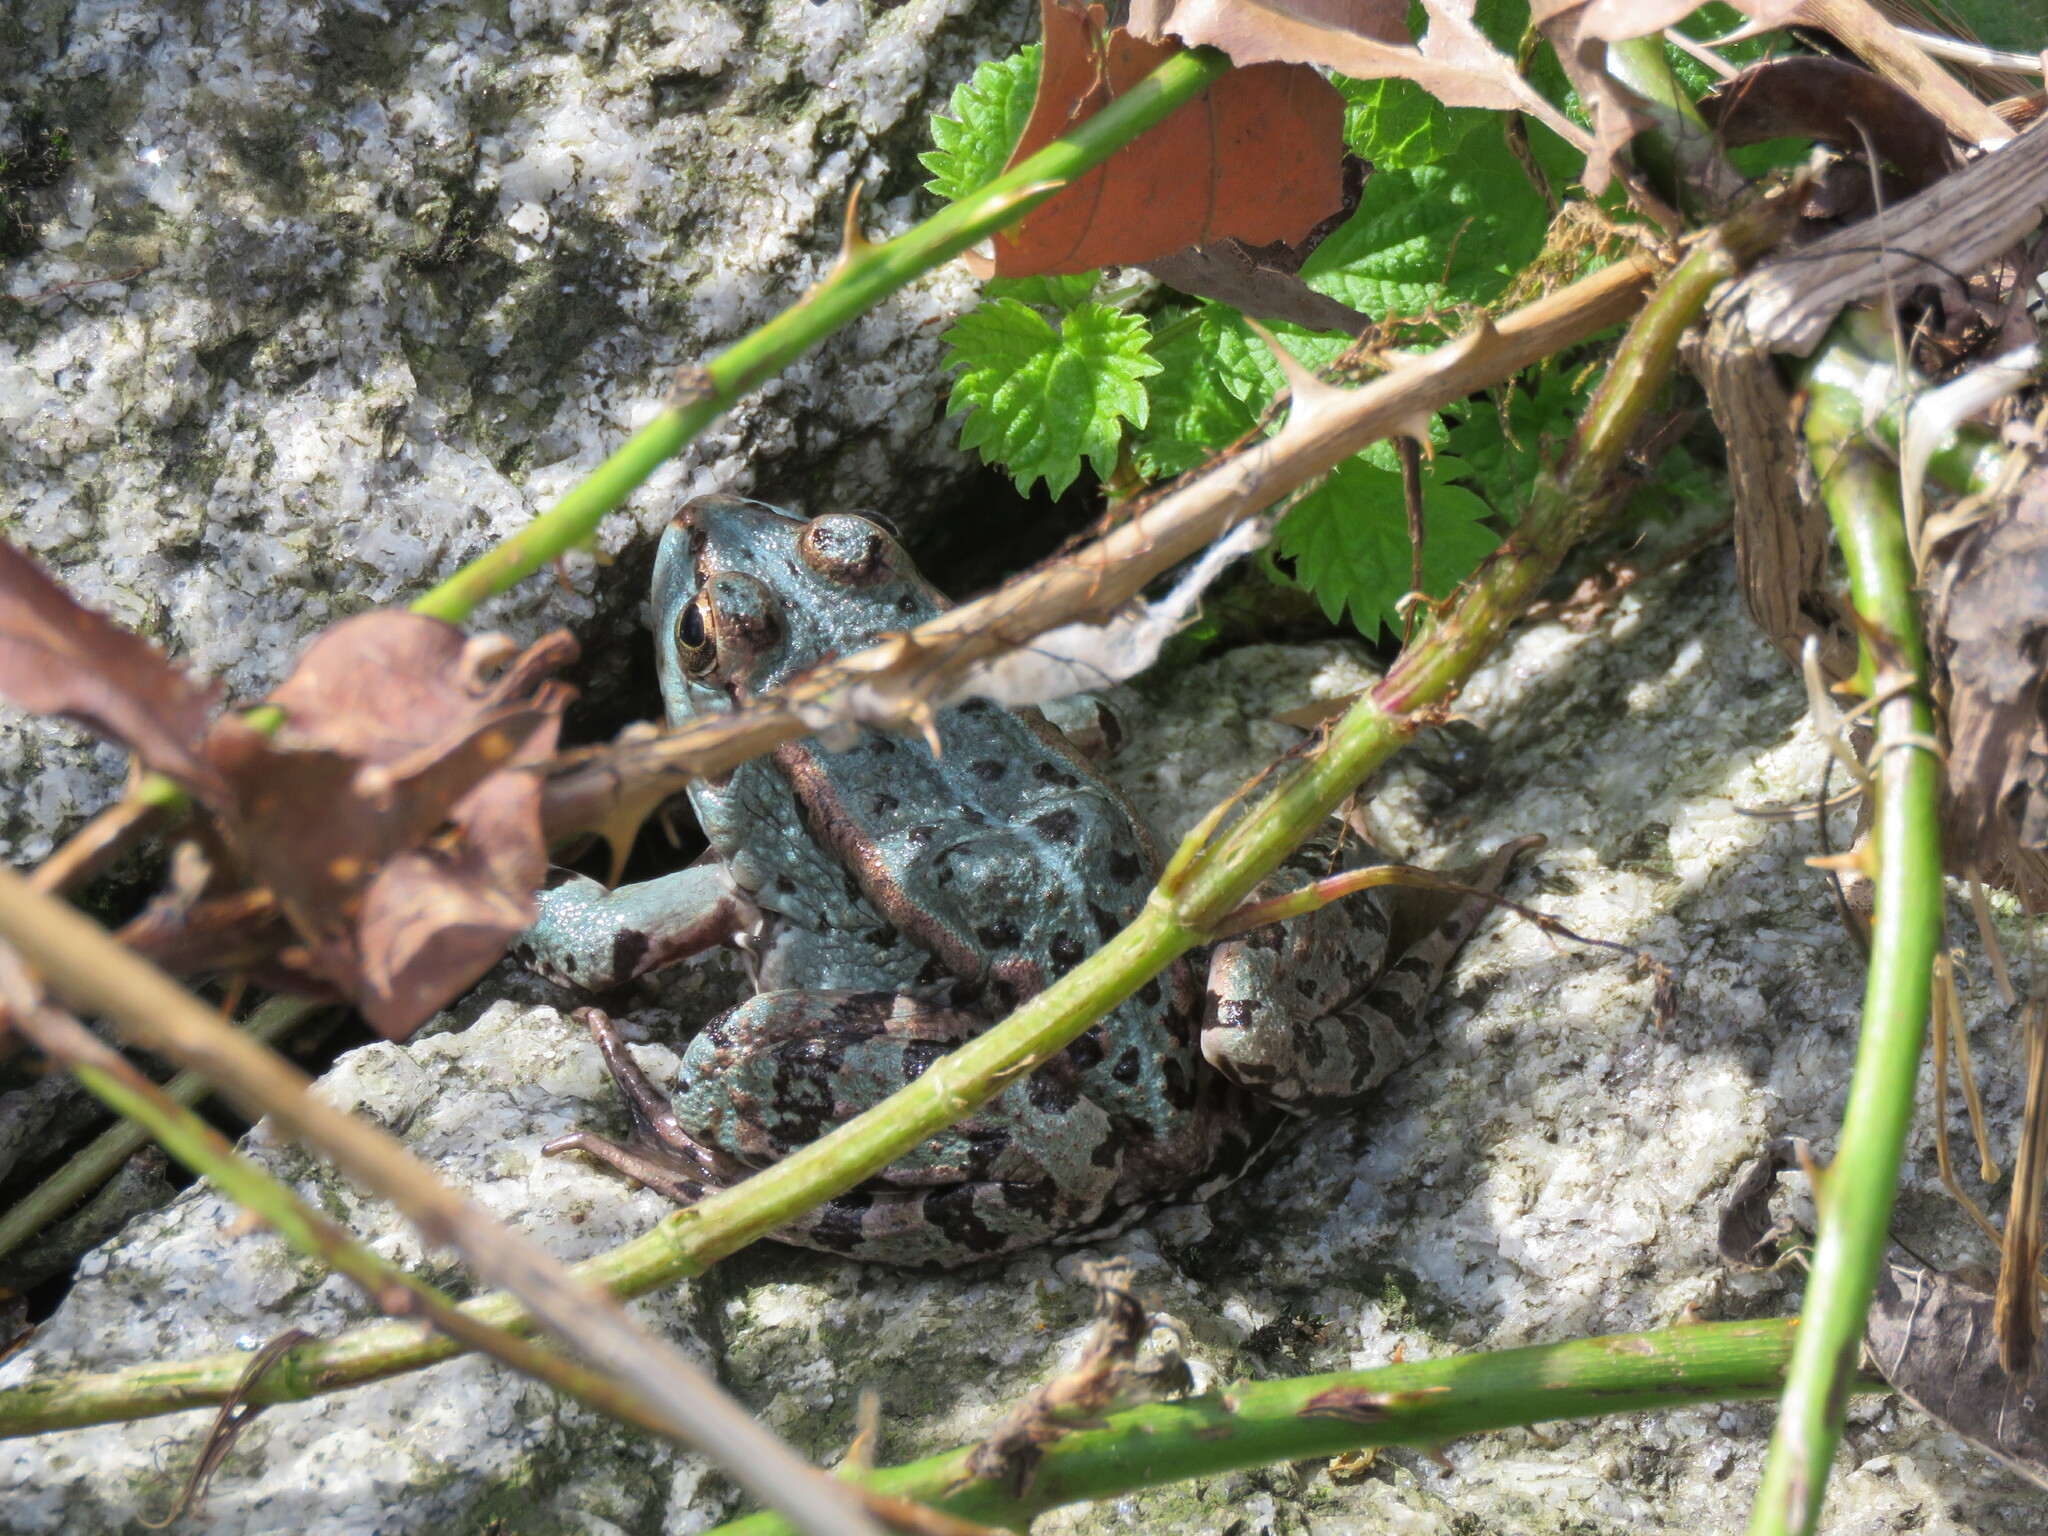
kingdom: Animalia
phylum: Chordata
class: Amphibia
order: Anura
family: Ranidae
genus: Pelophylax
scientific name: Pelophylax perezi
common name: Perez's frog
